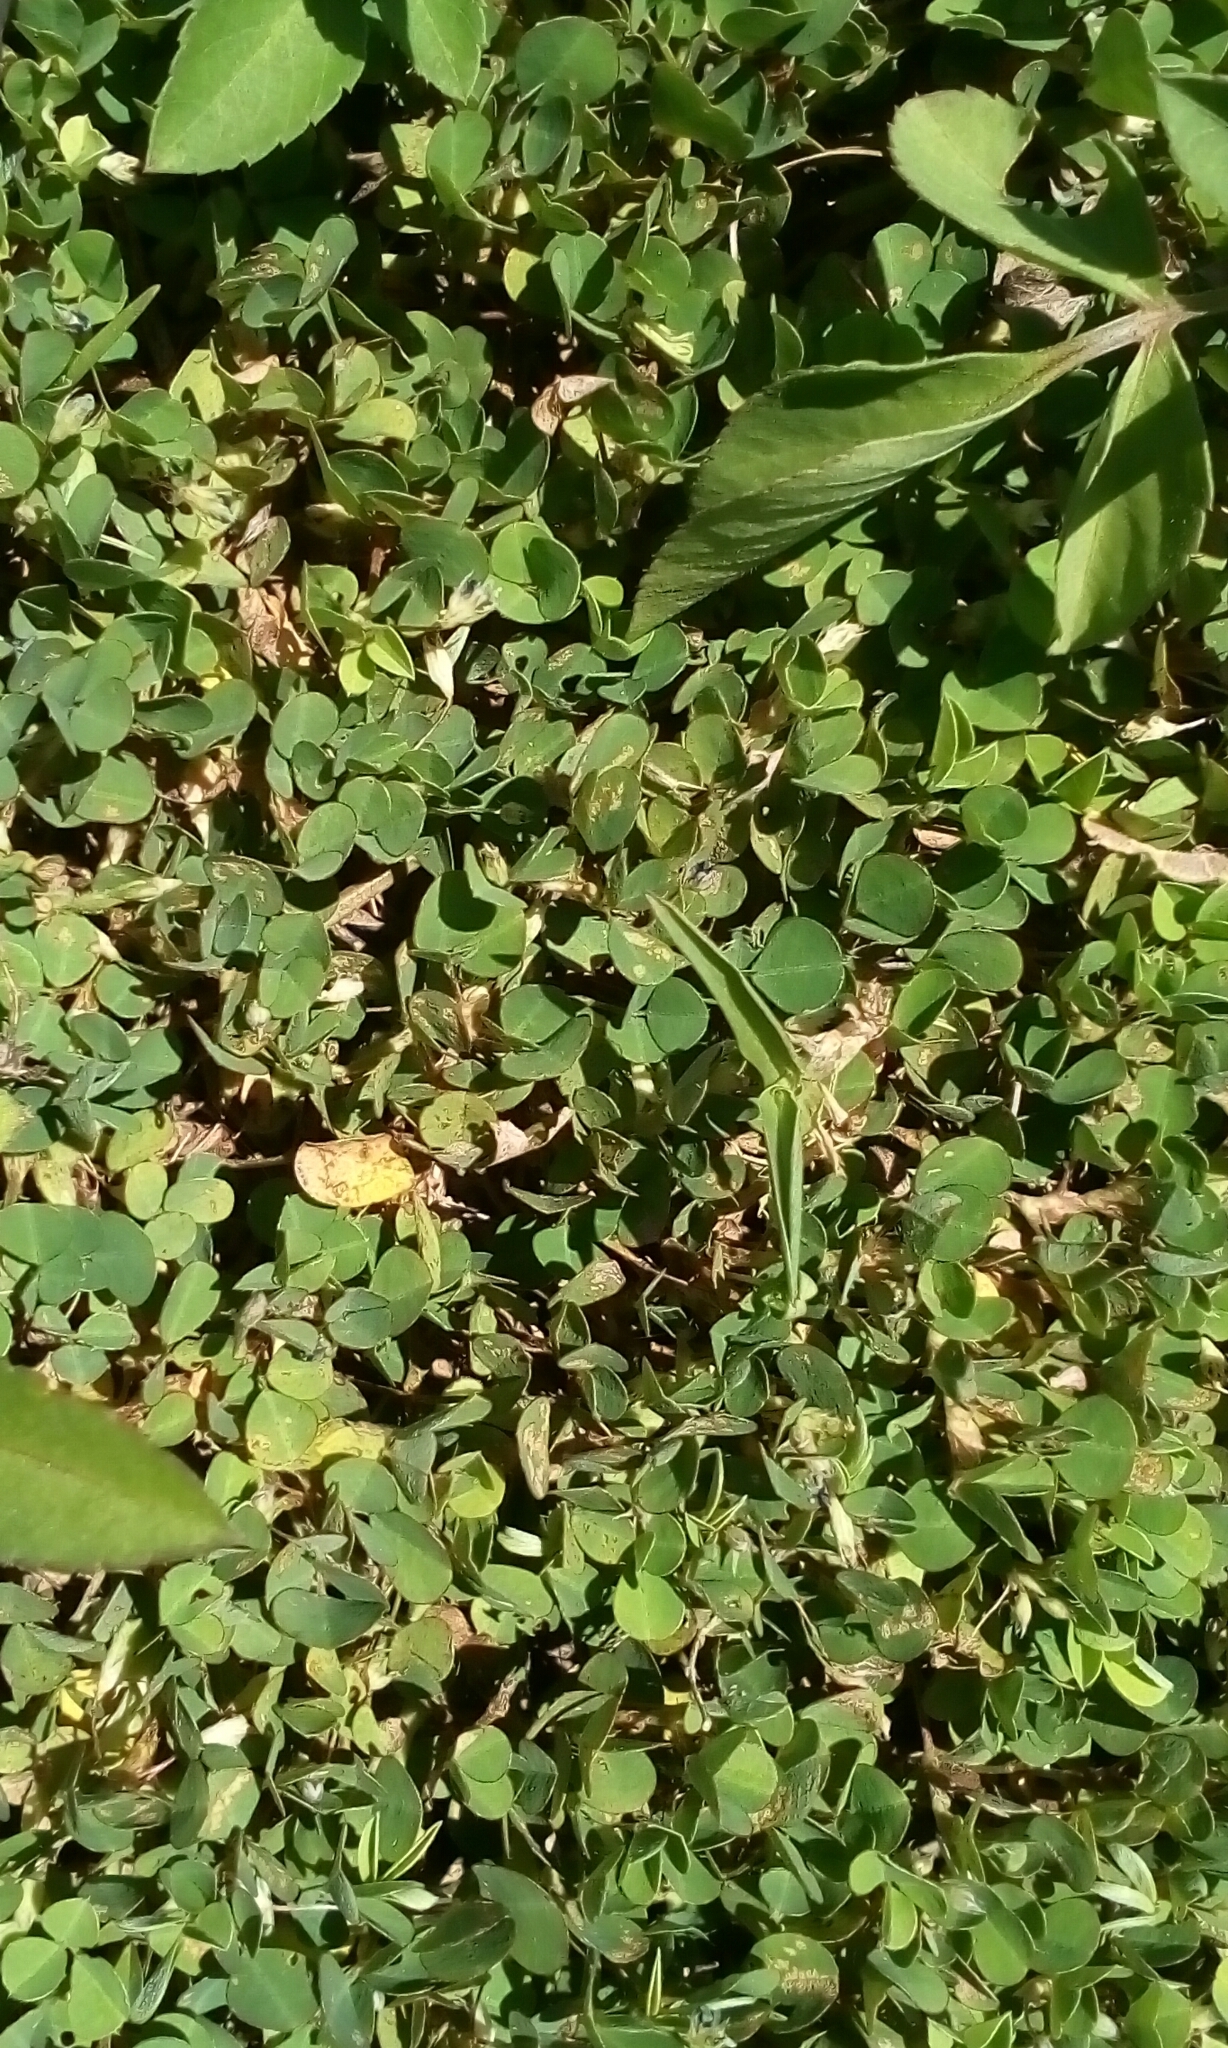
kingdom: Plantae
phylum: Tracheophyta
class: Magnoliopsida
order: Fabales
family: Fabaceae
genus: Grona
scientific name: Grona triflora
